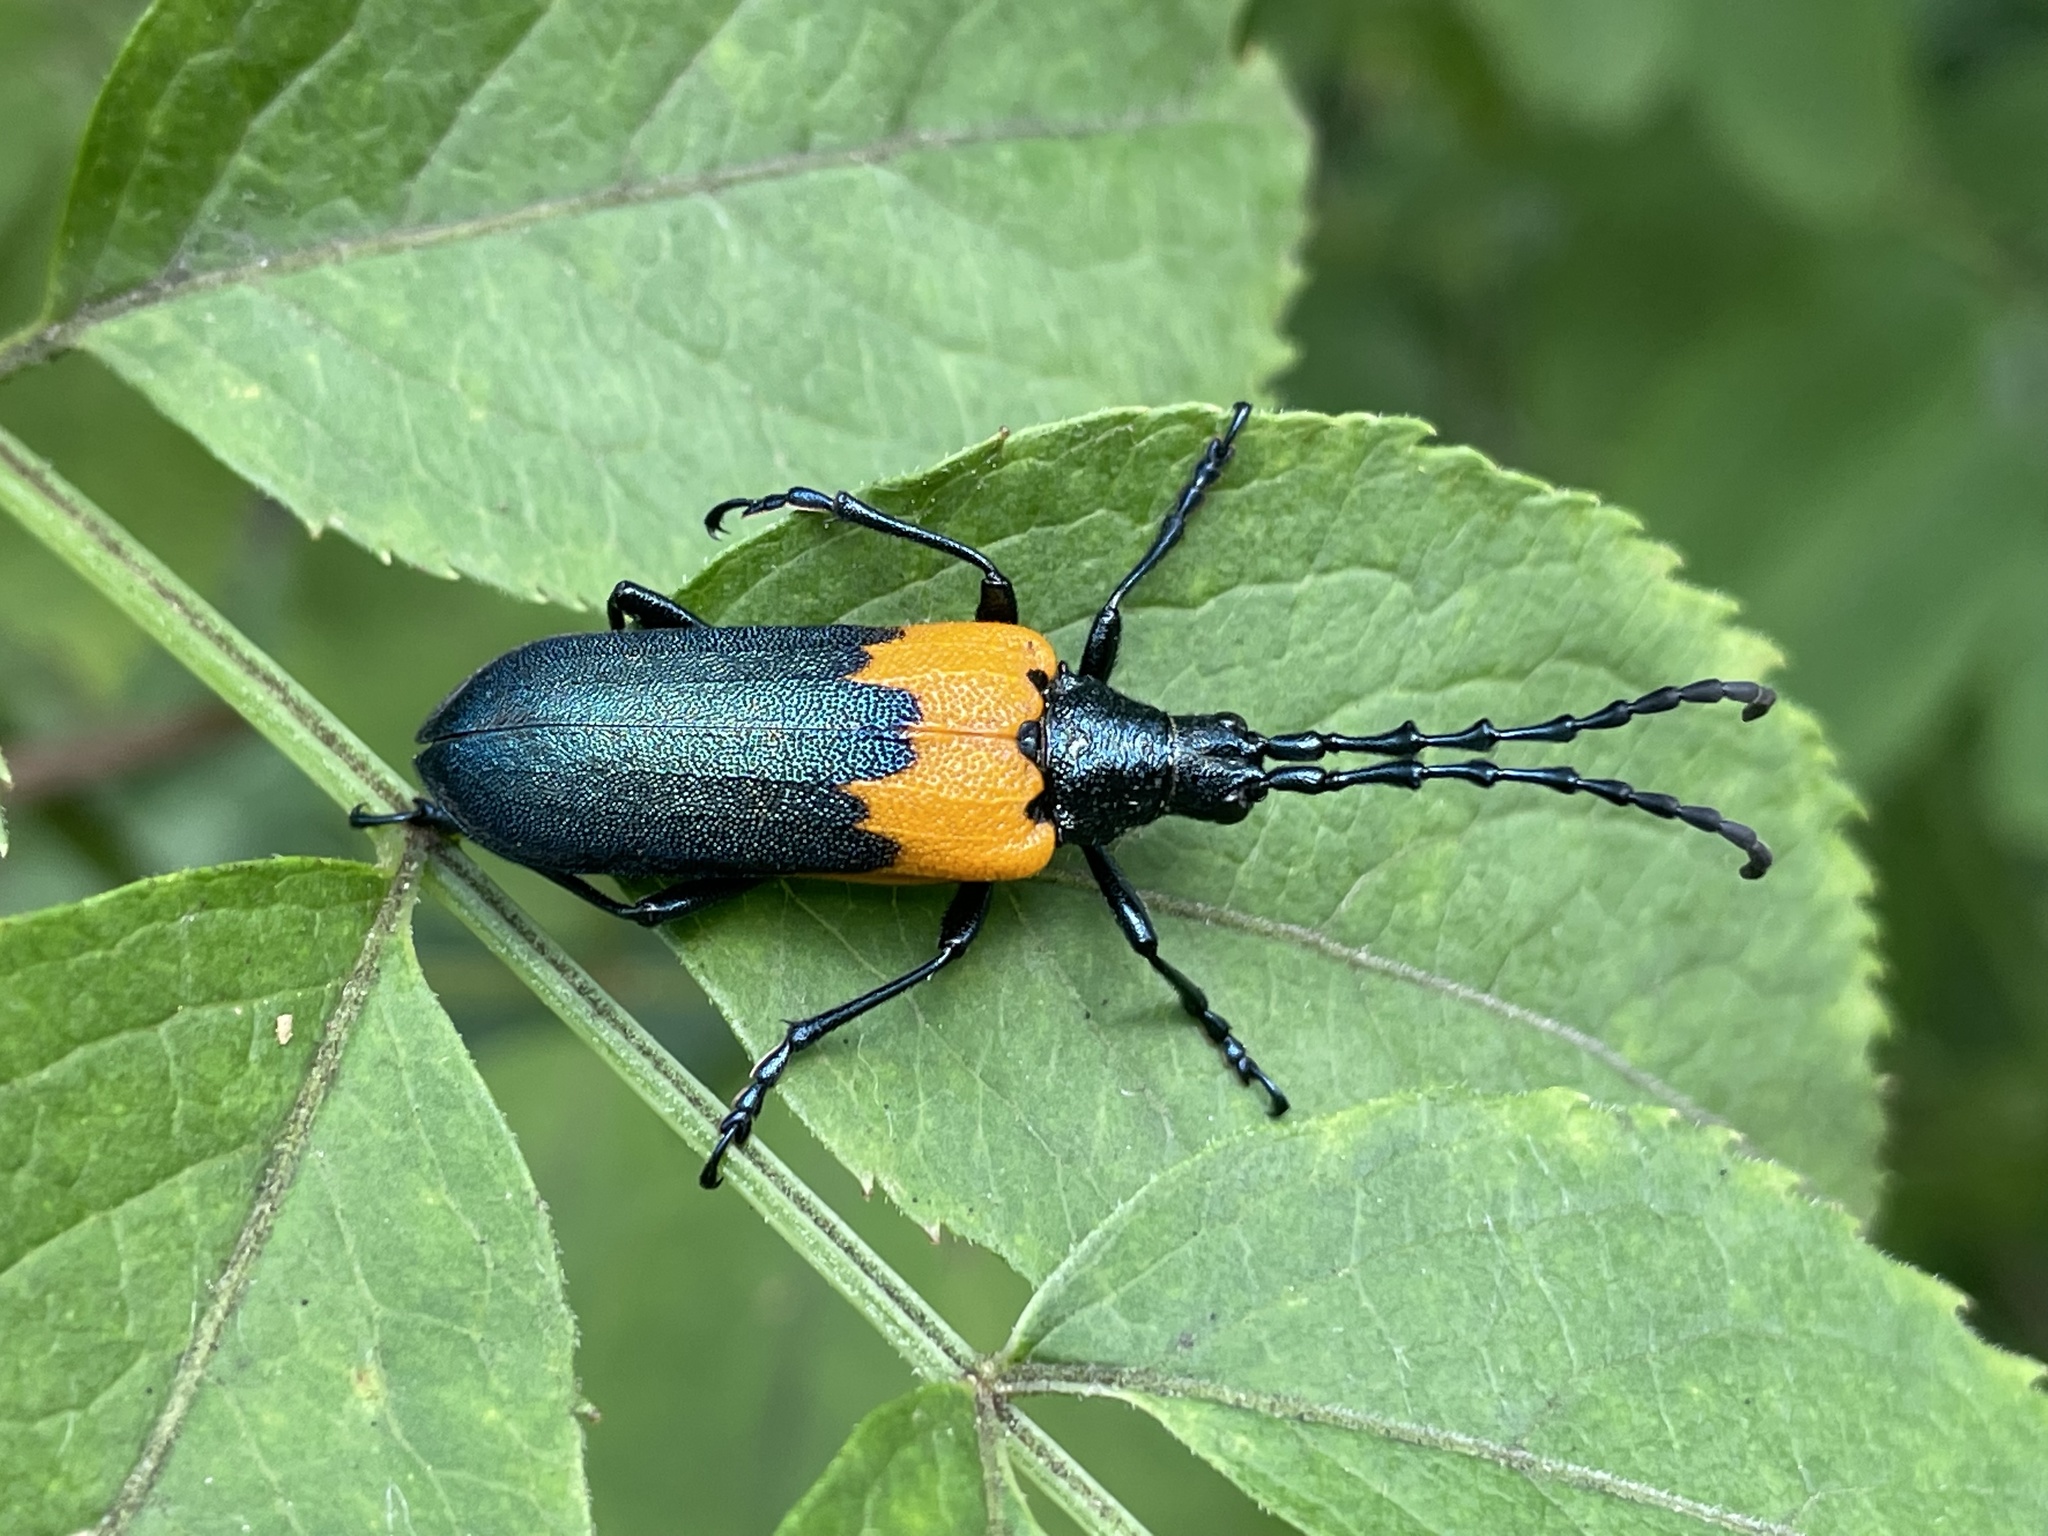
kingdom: Animalia
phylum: Arthropoda
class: Insecta
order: Coleoptera
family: Cerambycidae
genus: Desmocerus
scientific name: Desmocerus palliatus
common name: Eastern elderberry borer
